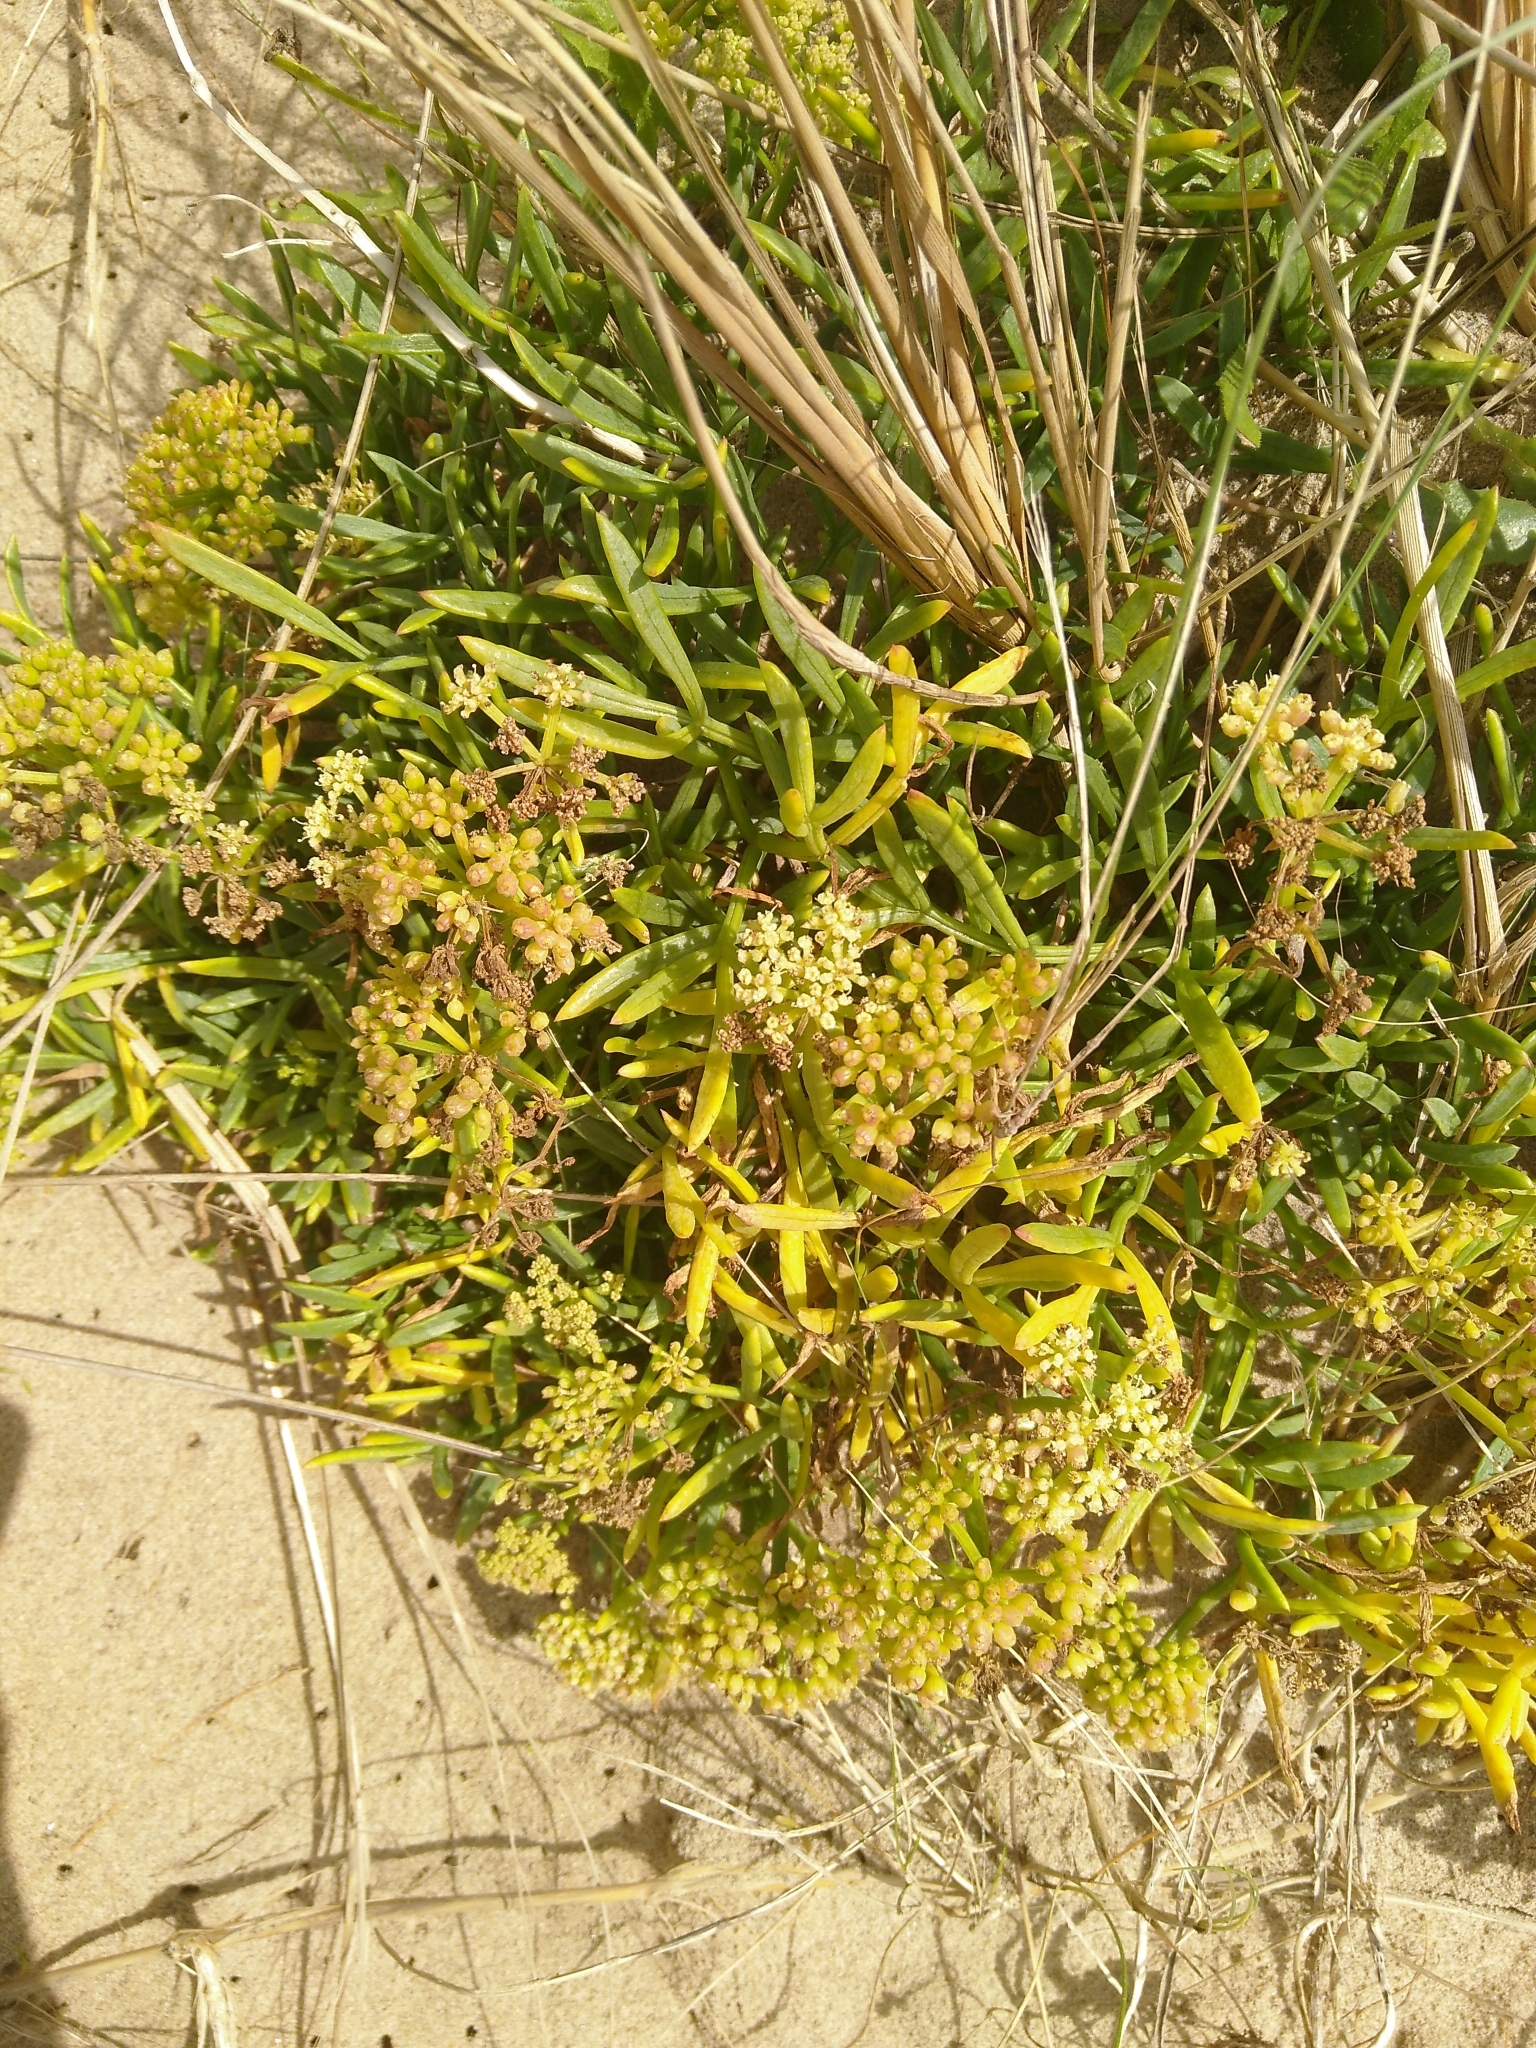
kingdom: Plantae
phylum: Tracheophyta
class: Magnoliopsida
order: Apiales
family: Apiaceae
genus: Crithmum
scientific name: Crithmum maritimum
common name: Rock samphire
